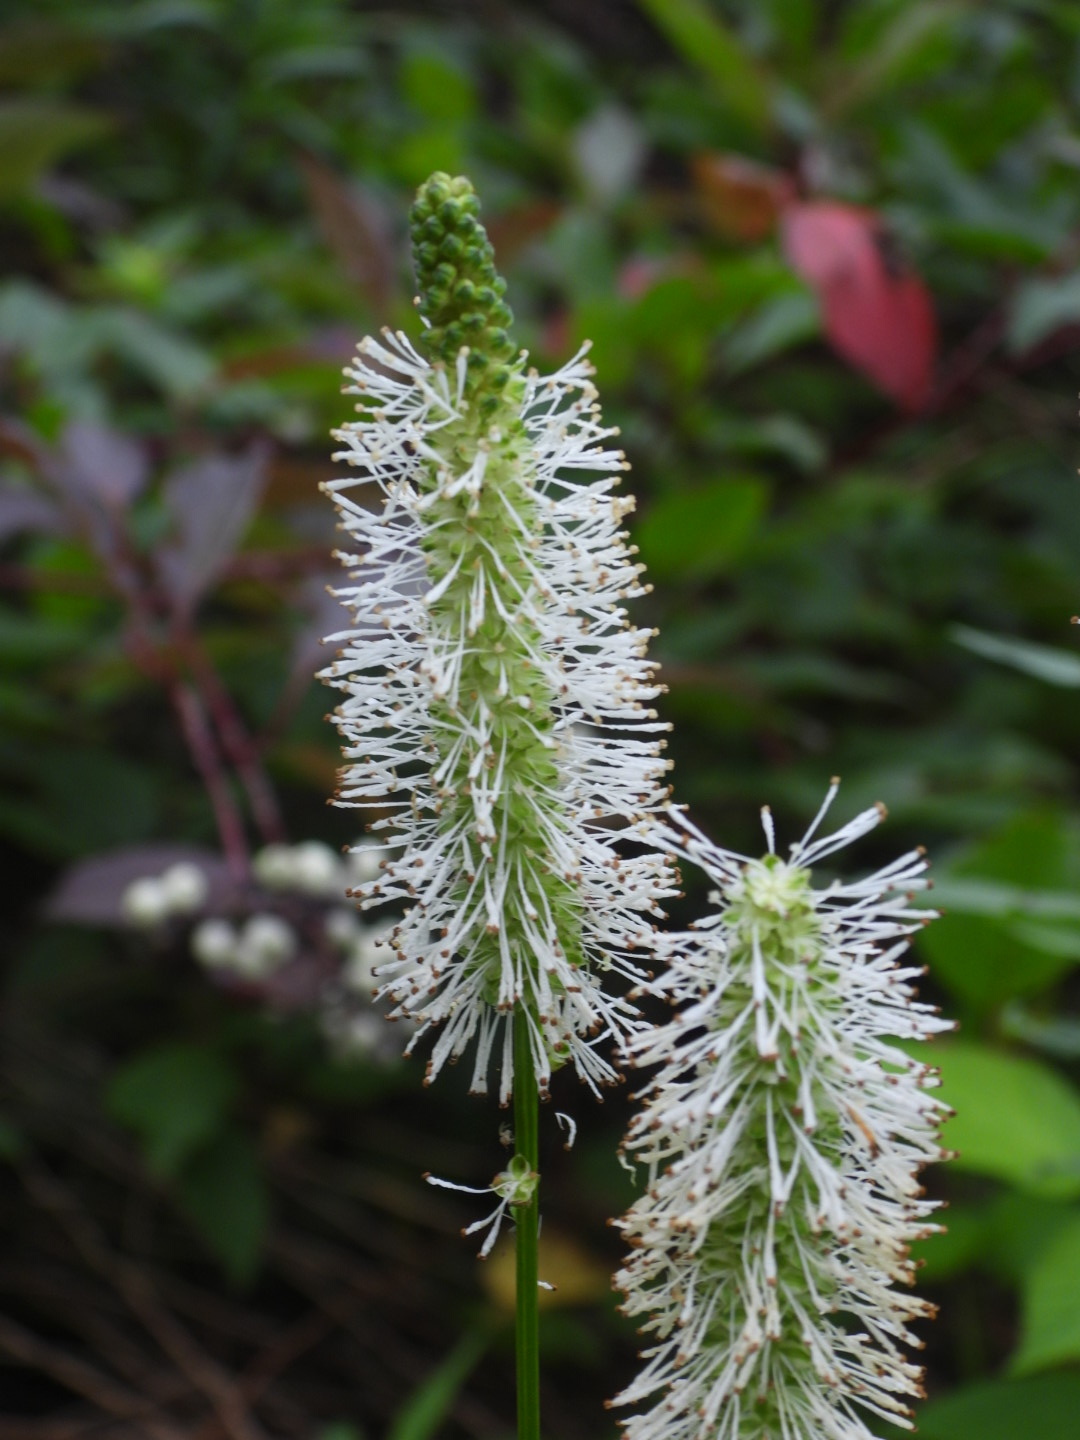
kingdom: Plantae
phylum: Tracheophyta
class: Magnoliopsida
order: Rosales
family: Rosaceae
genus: Sanguisorba
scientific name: Sanguisorba canadensis
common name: White burnet
